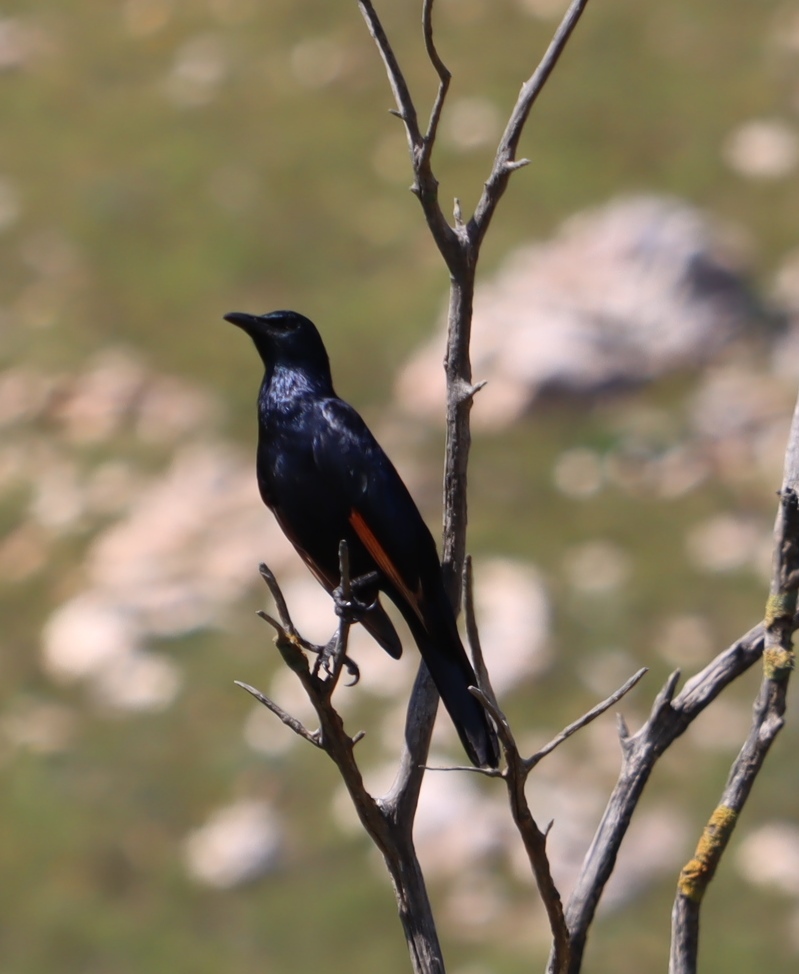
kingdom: Animalia
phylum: Chordata
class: Aves
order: Passeriformes
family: Sturnidae
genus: Onychognathus
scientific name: Onychognathus morio
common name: Red-winged starling
